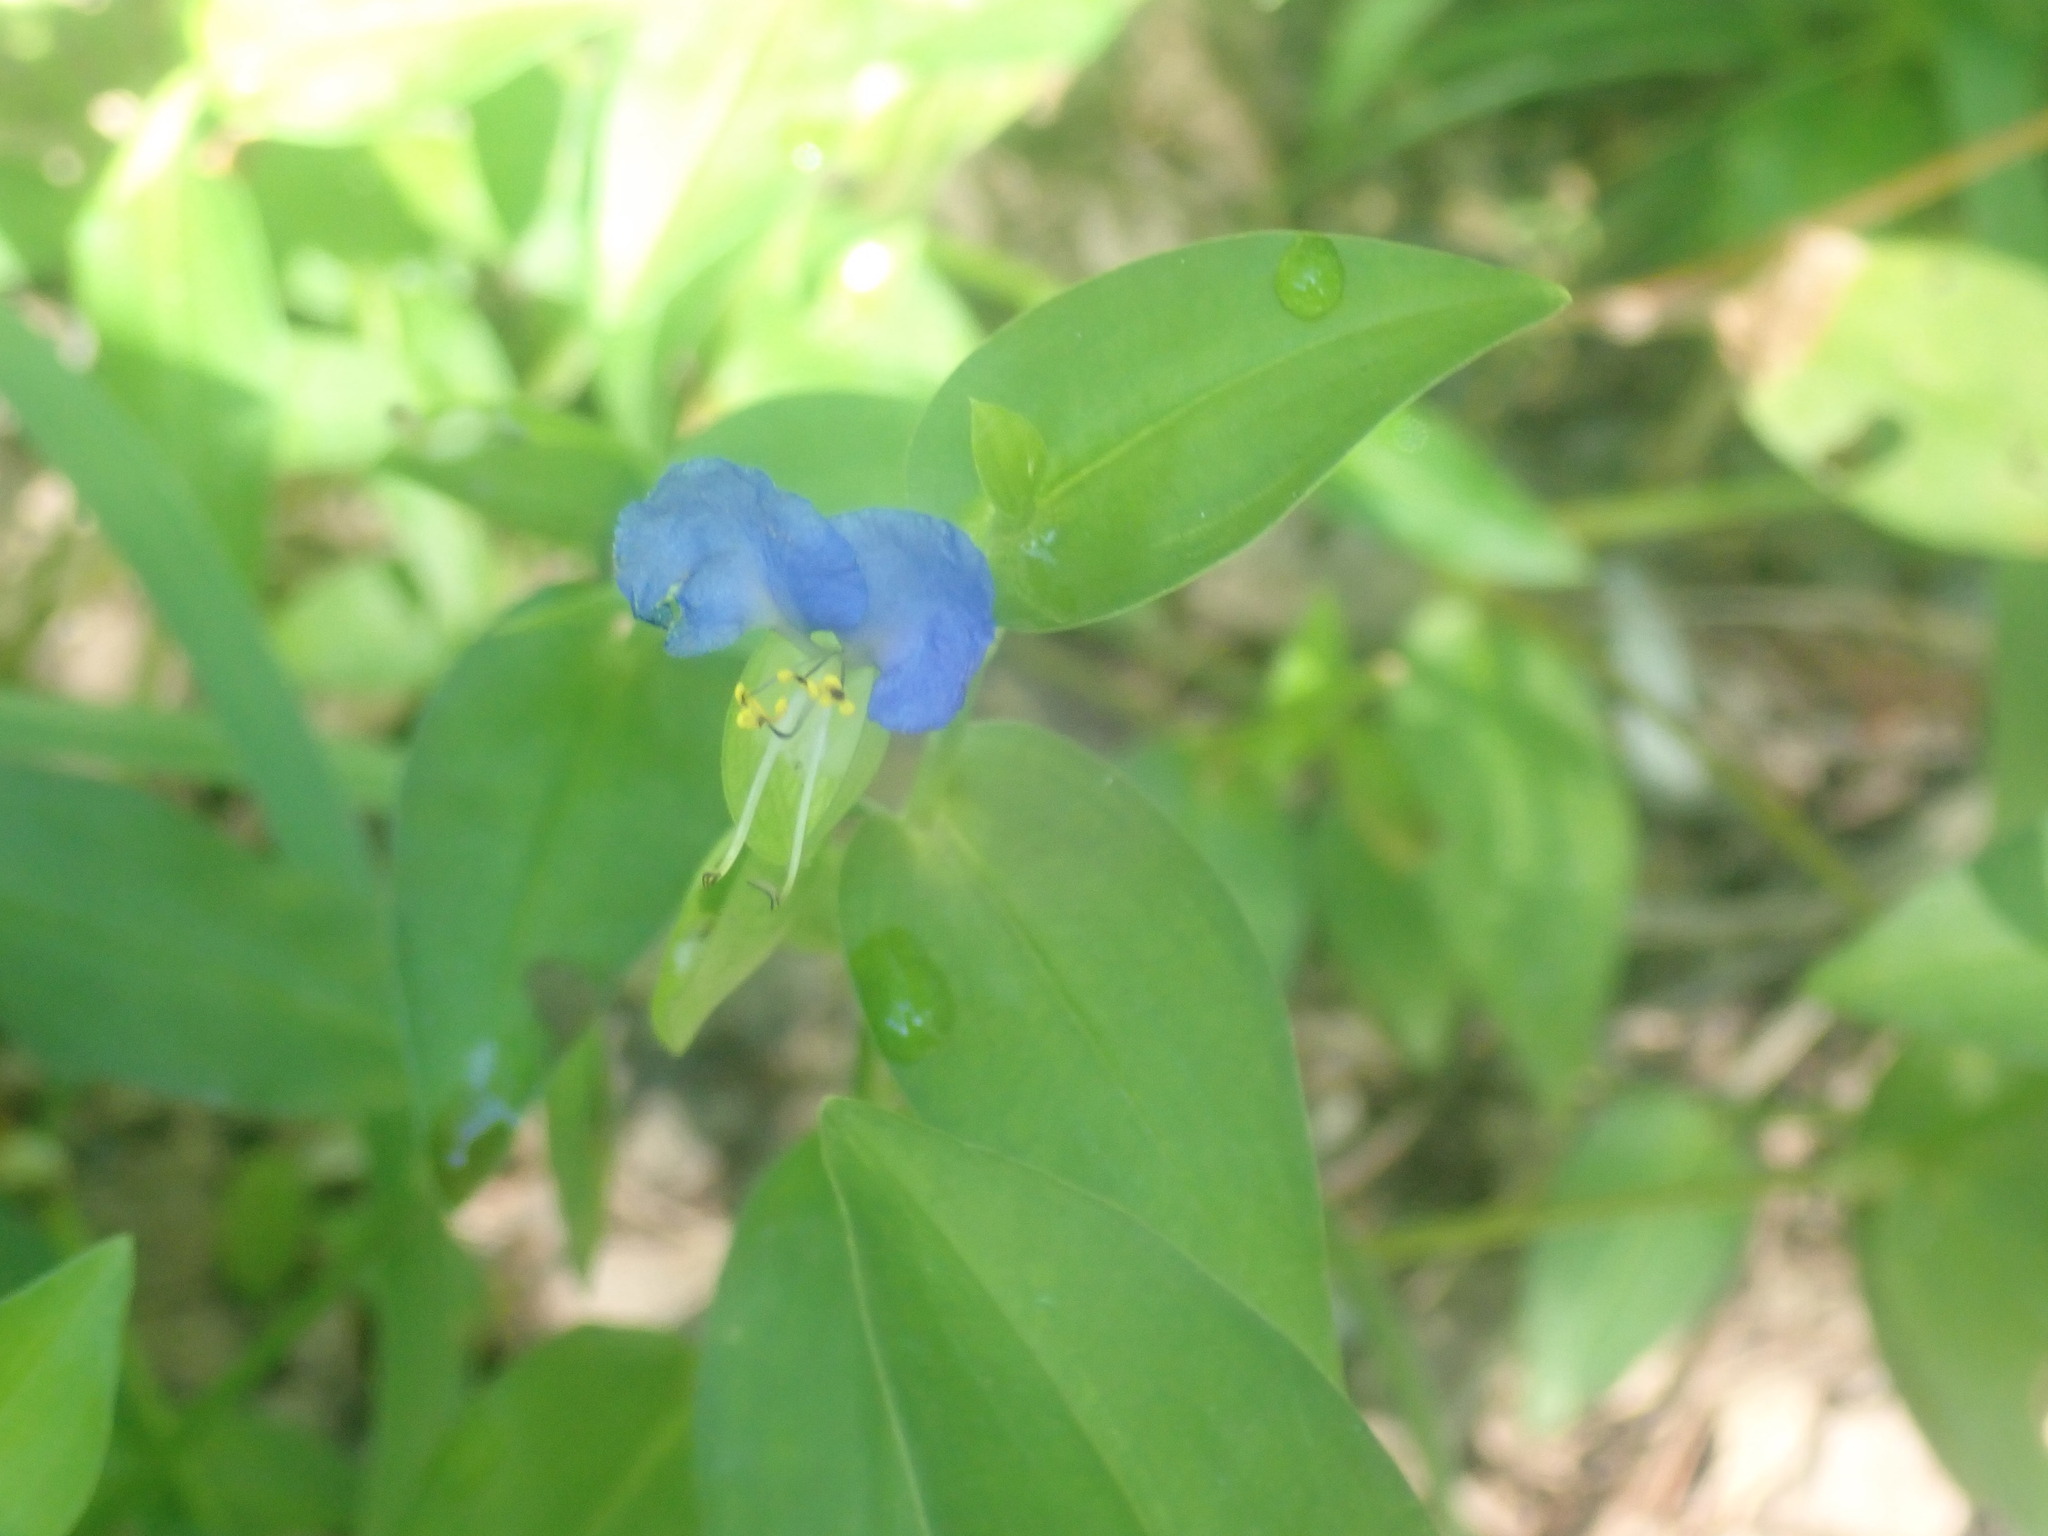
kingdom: Plantae
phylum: Tracheophyta
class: Liliopsida
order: Commelinales
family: Commelinaceae
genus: Commelina
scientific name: Commelina communis
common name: Asiatic dayflower
